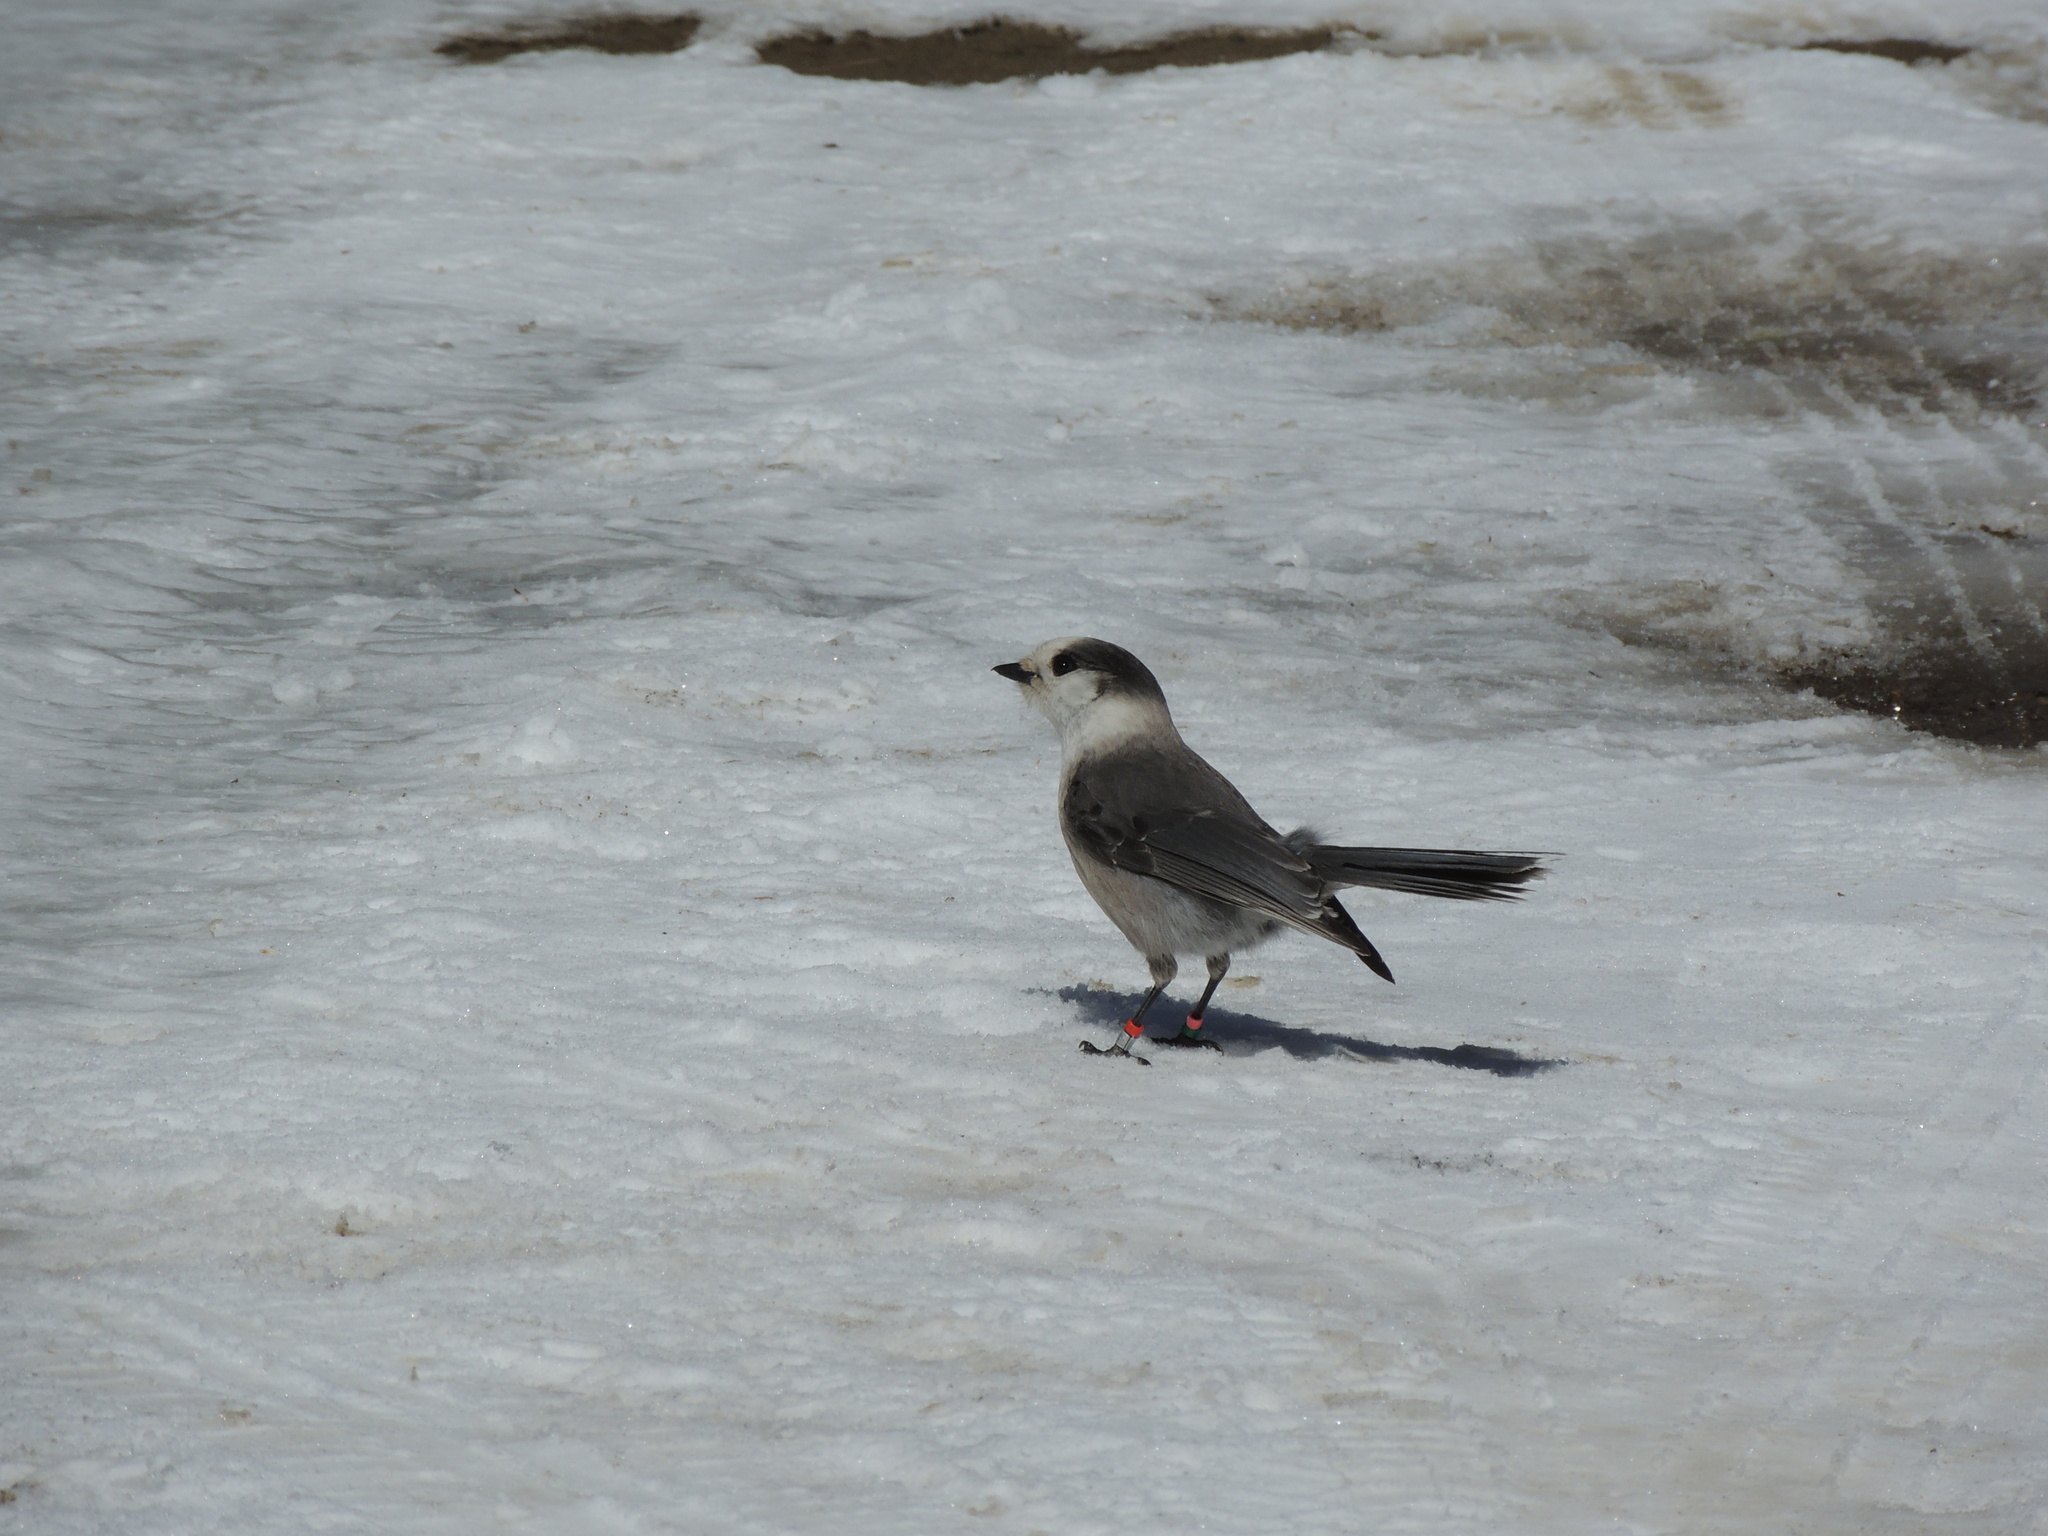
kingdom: Animalia
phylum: Chordata
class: Aves
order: Passeriformes
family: Corvidae
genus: Perisoreus
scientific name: Perisoreus canadensis
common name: Gray jay
